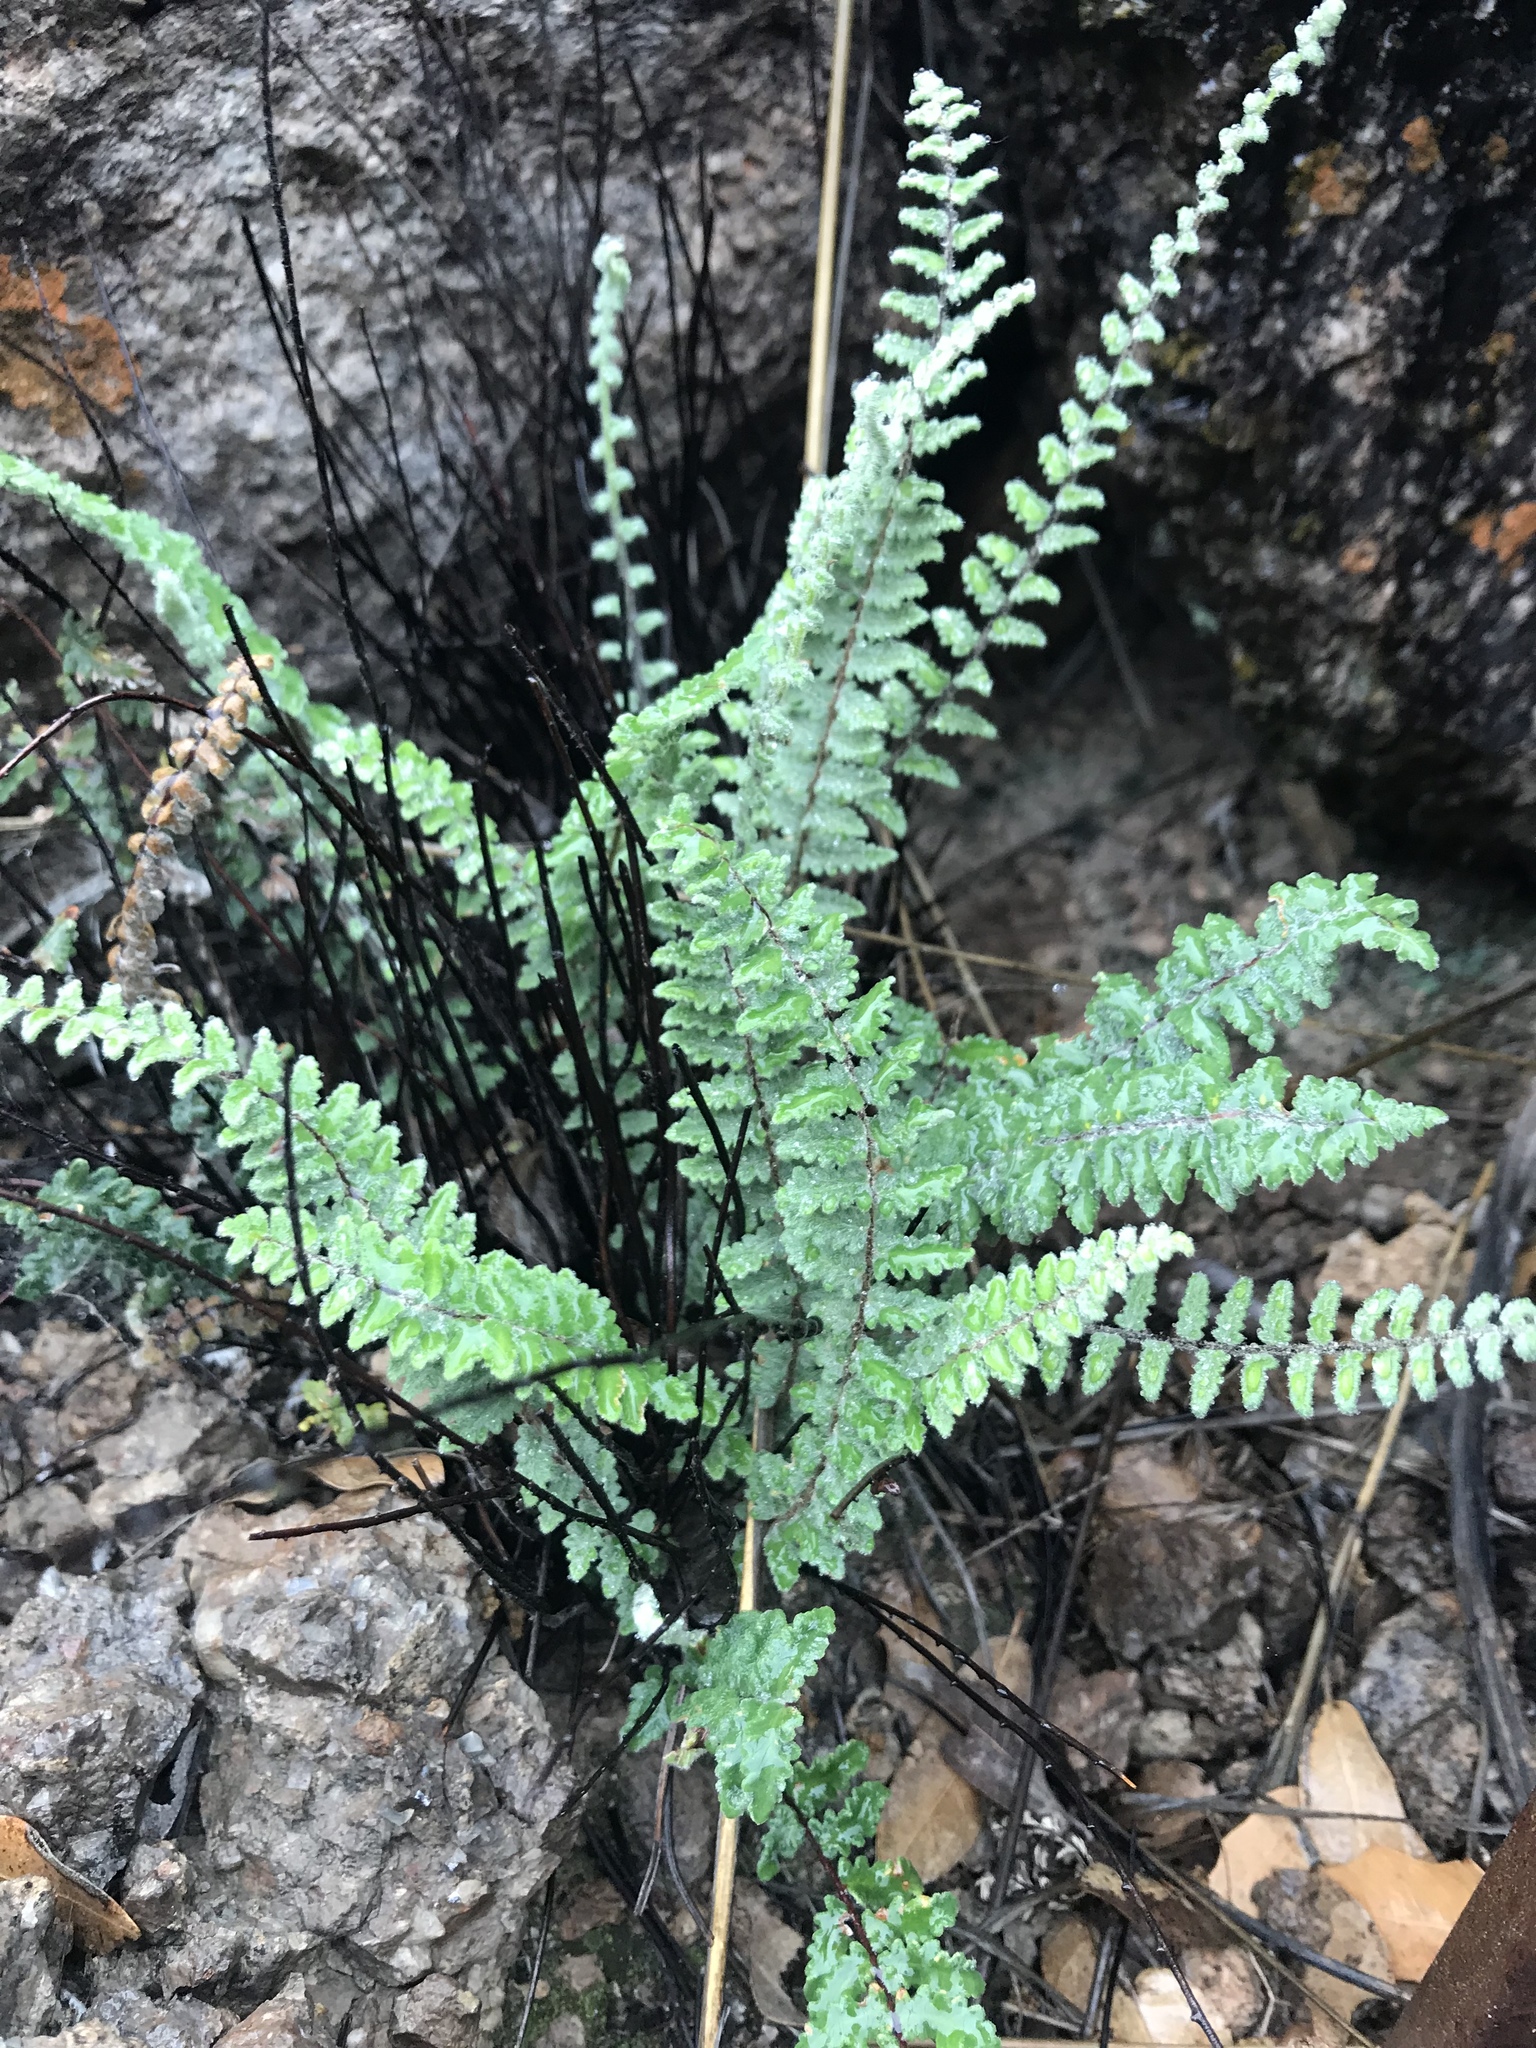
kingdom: Plantae
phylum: Tracheophyta
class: Polypodiopsida
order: Polypodiales
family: Pteridaceae
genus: Myriopteris
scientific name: Myriopteris aurea
